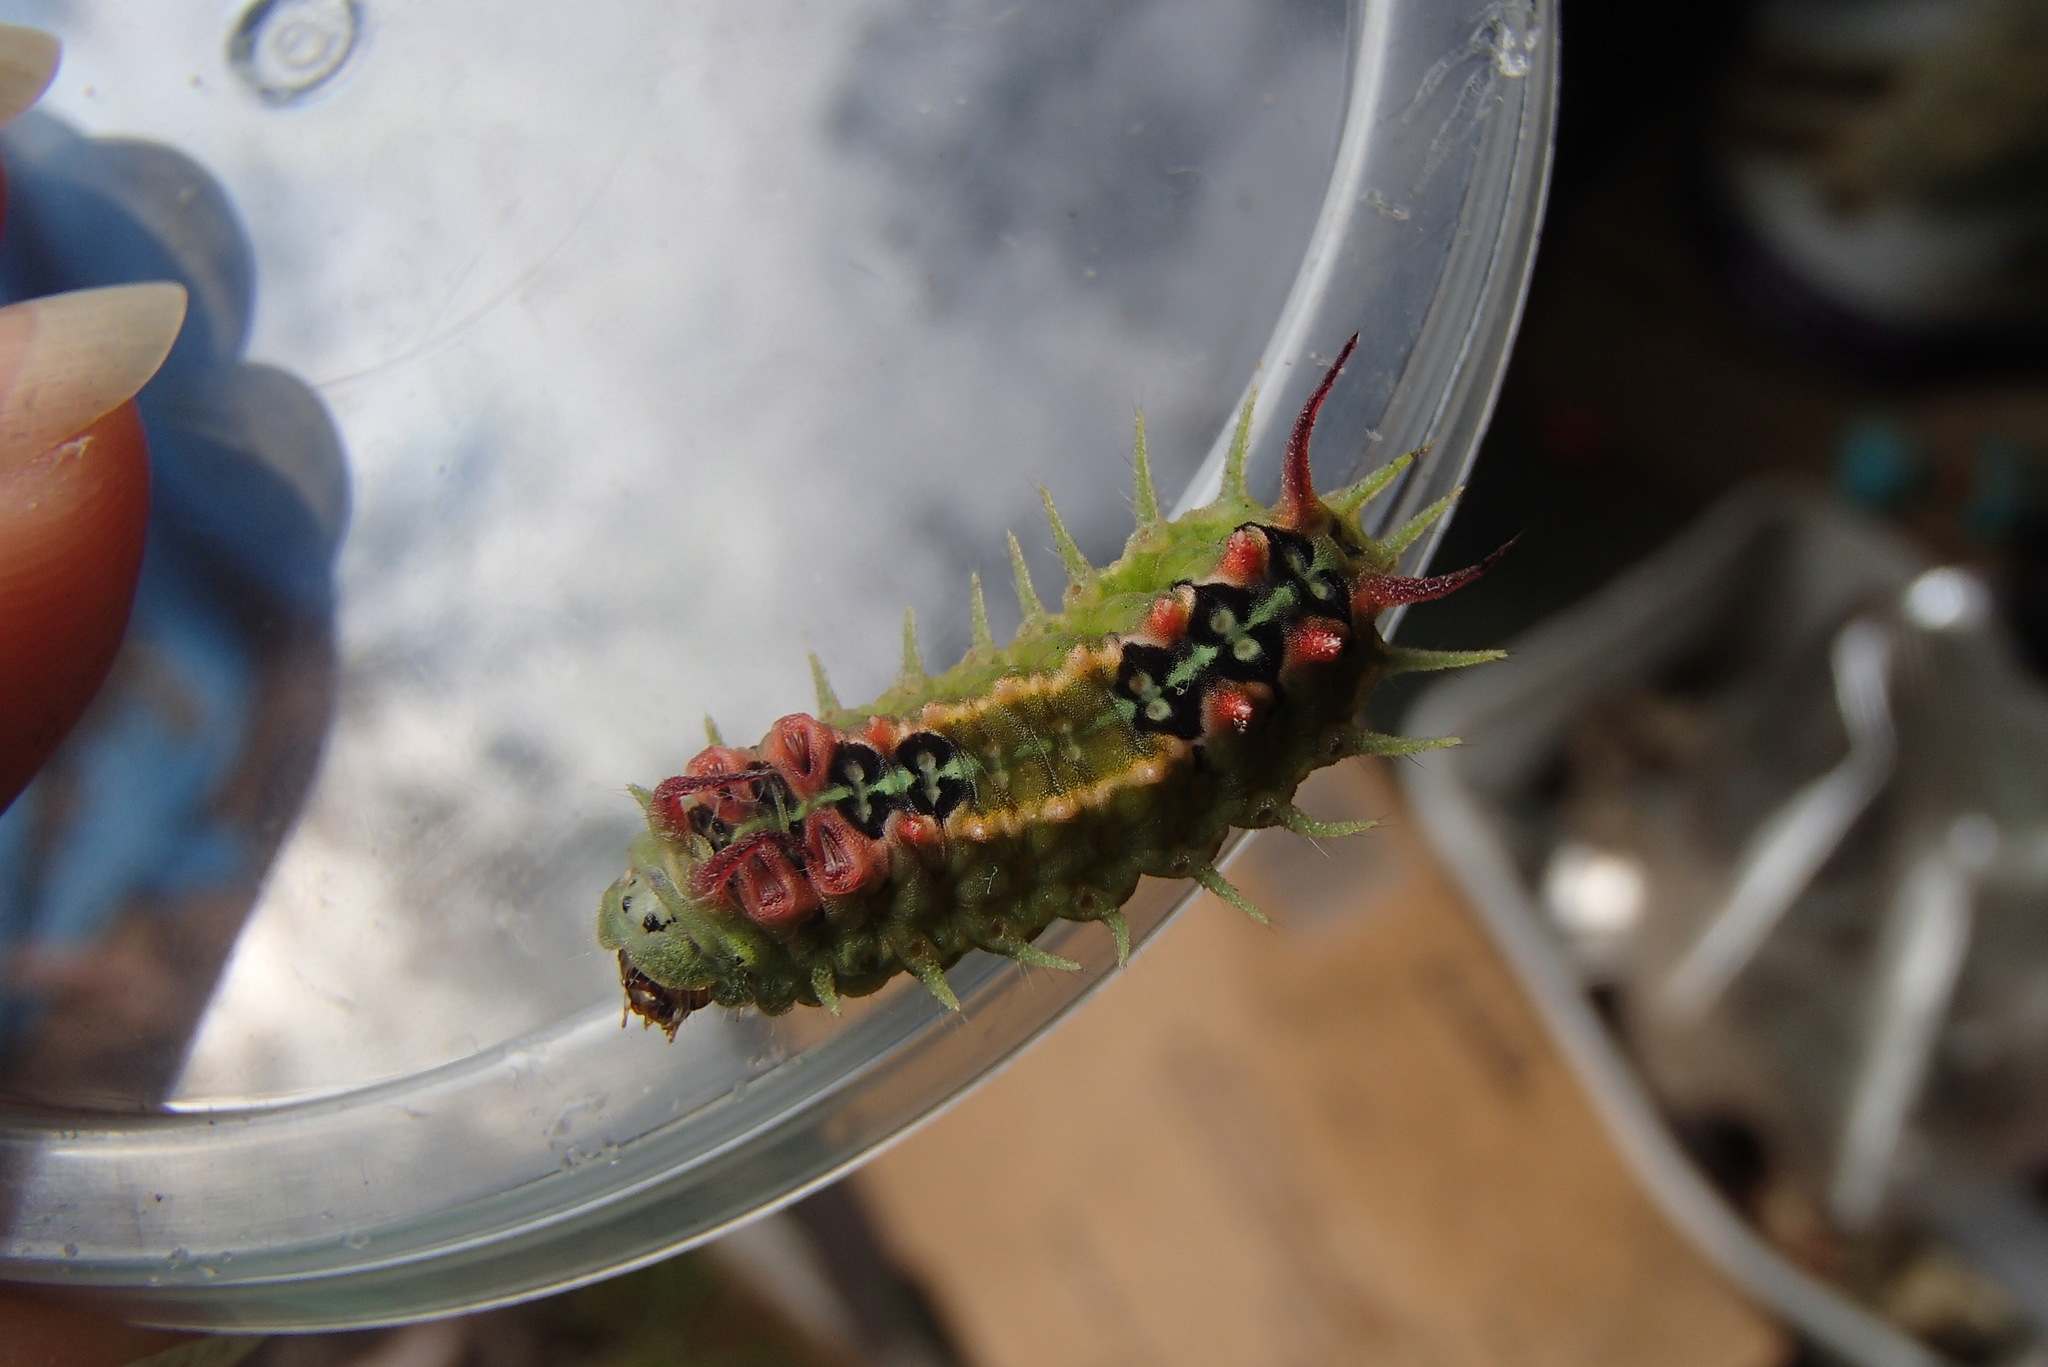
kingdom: Animalia
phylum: Arthropoda
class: Insecta
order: Lepidoptera
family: Limacodidae
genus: Doratifera
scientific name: Doratifera quadriguttata
